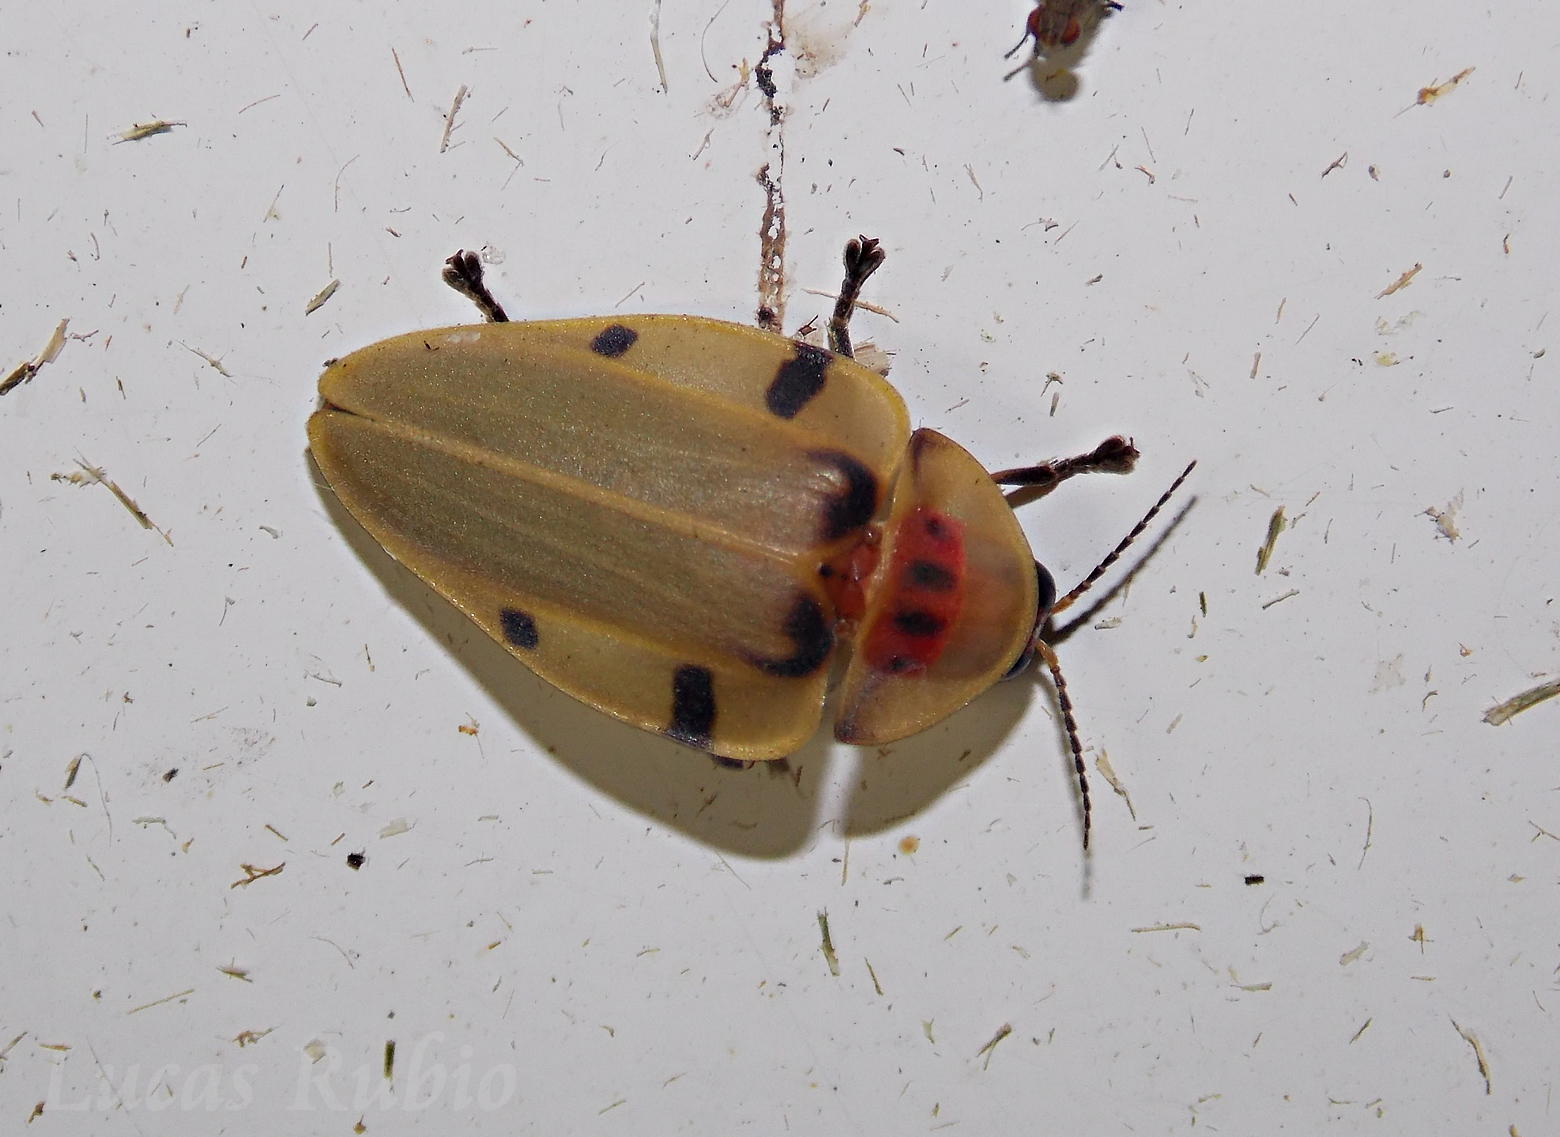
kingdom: Animalia
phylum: Arthropoda
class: Insecta
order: Coleoptera
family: Lampyridae
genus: Aspisoma
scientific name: Aspisoma sticticum
